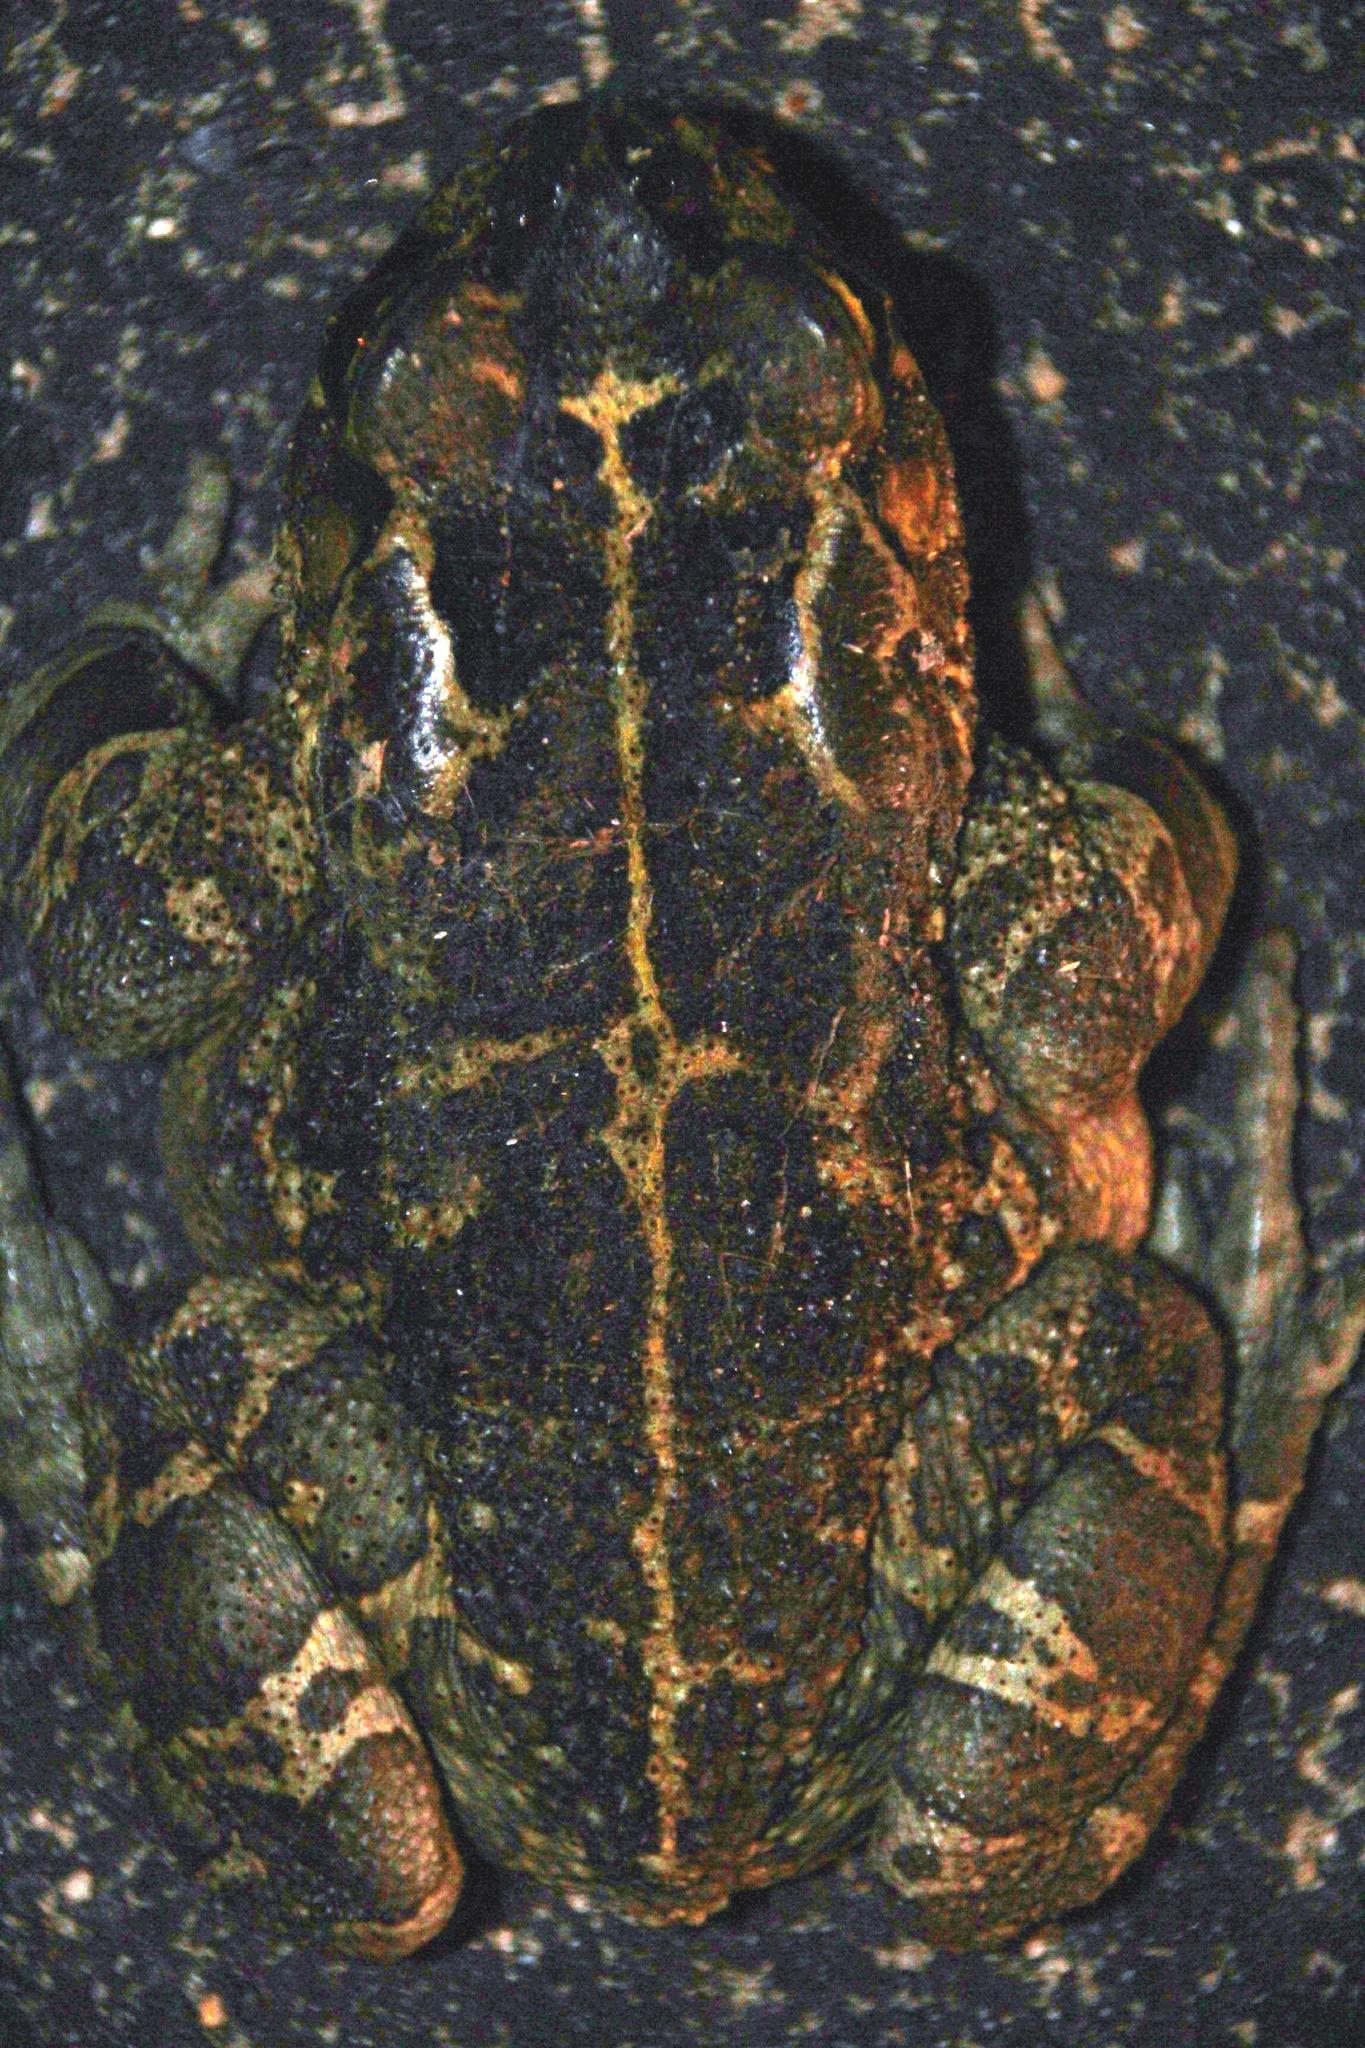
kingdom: Animalia
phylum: Chordata
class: Amphibia
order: Anura
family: Bufonidae
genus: Sclerophrys
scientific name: Sclerophrys pantherina
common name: Panther toad
